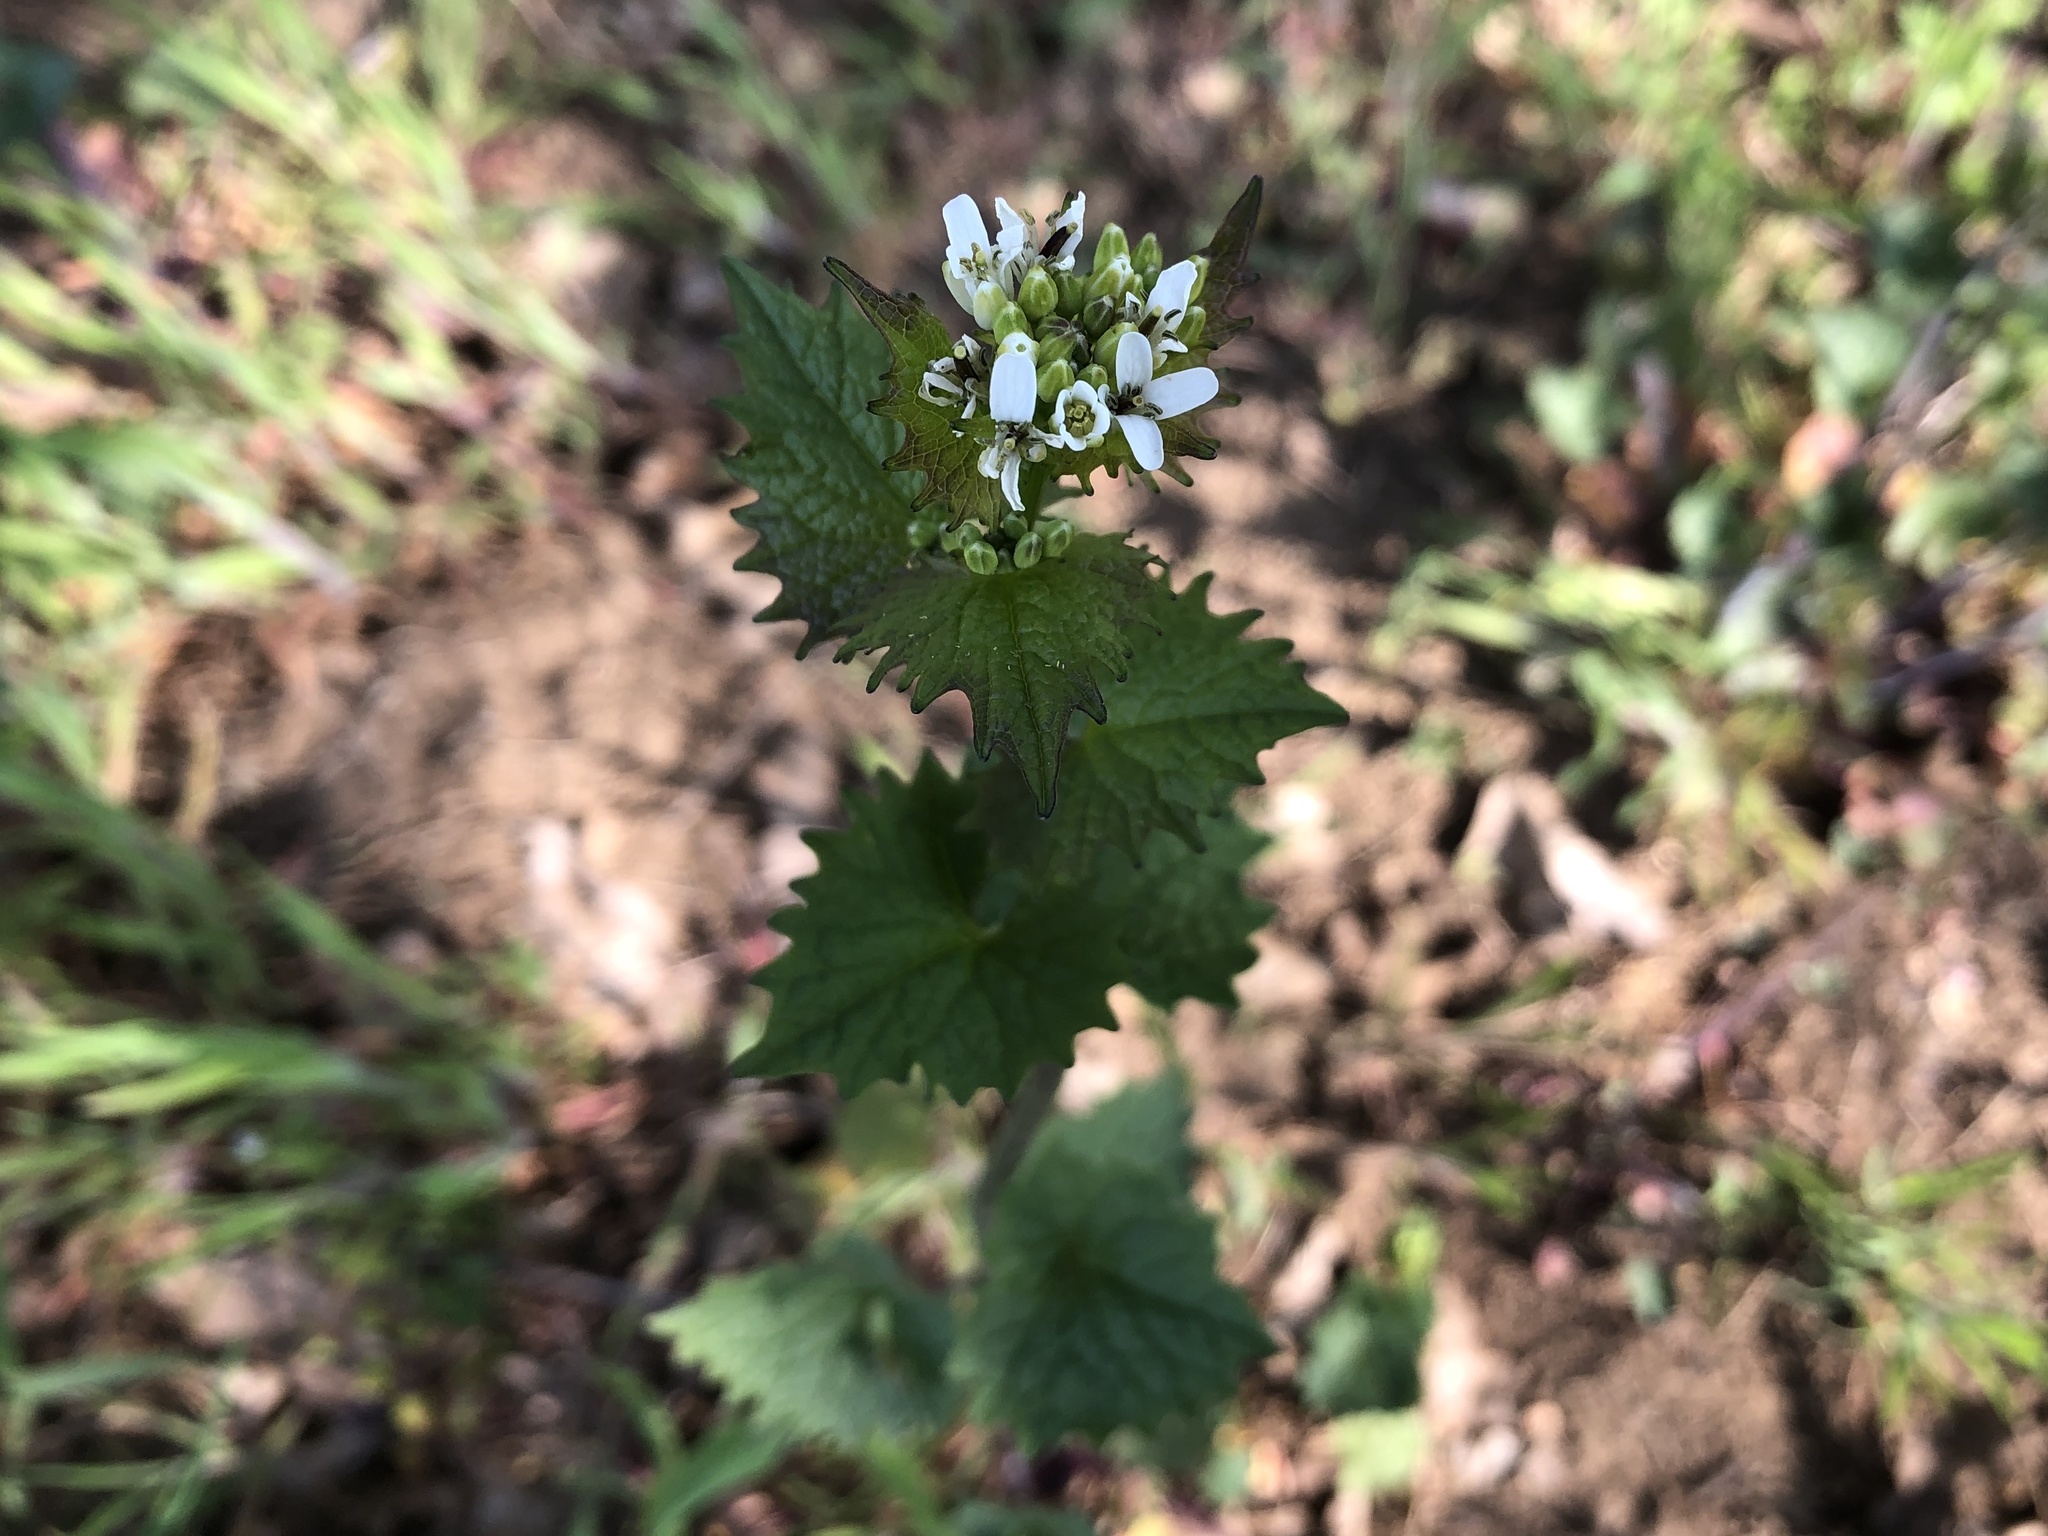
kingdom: Plantae
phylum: Tracheophyta
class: Magnoliopsida
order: Brassicales
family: Brassicaceae
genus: Alliaria
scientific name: Alliaria petiolata
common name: Garlic mustard
